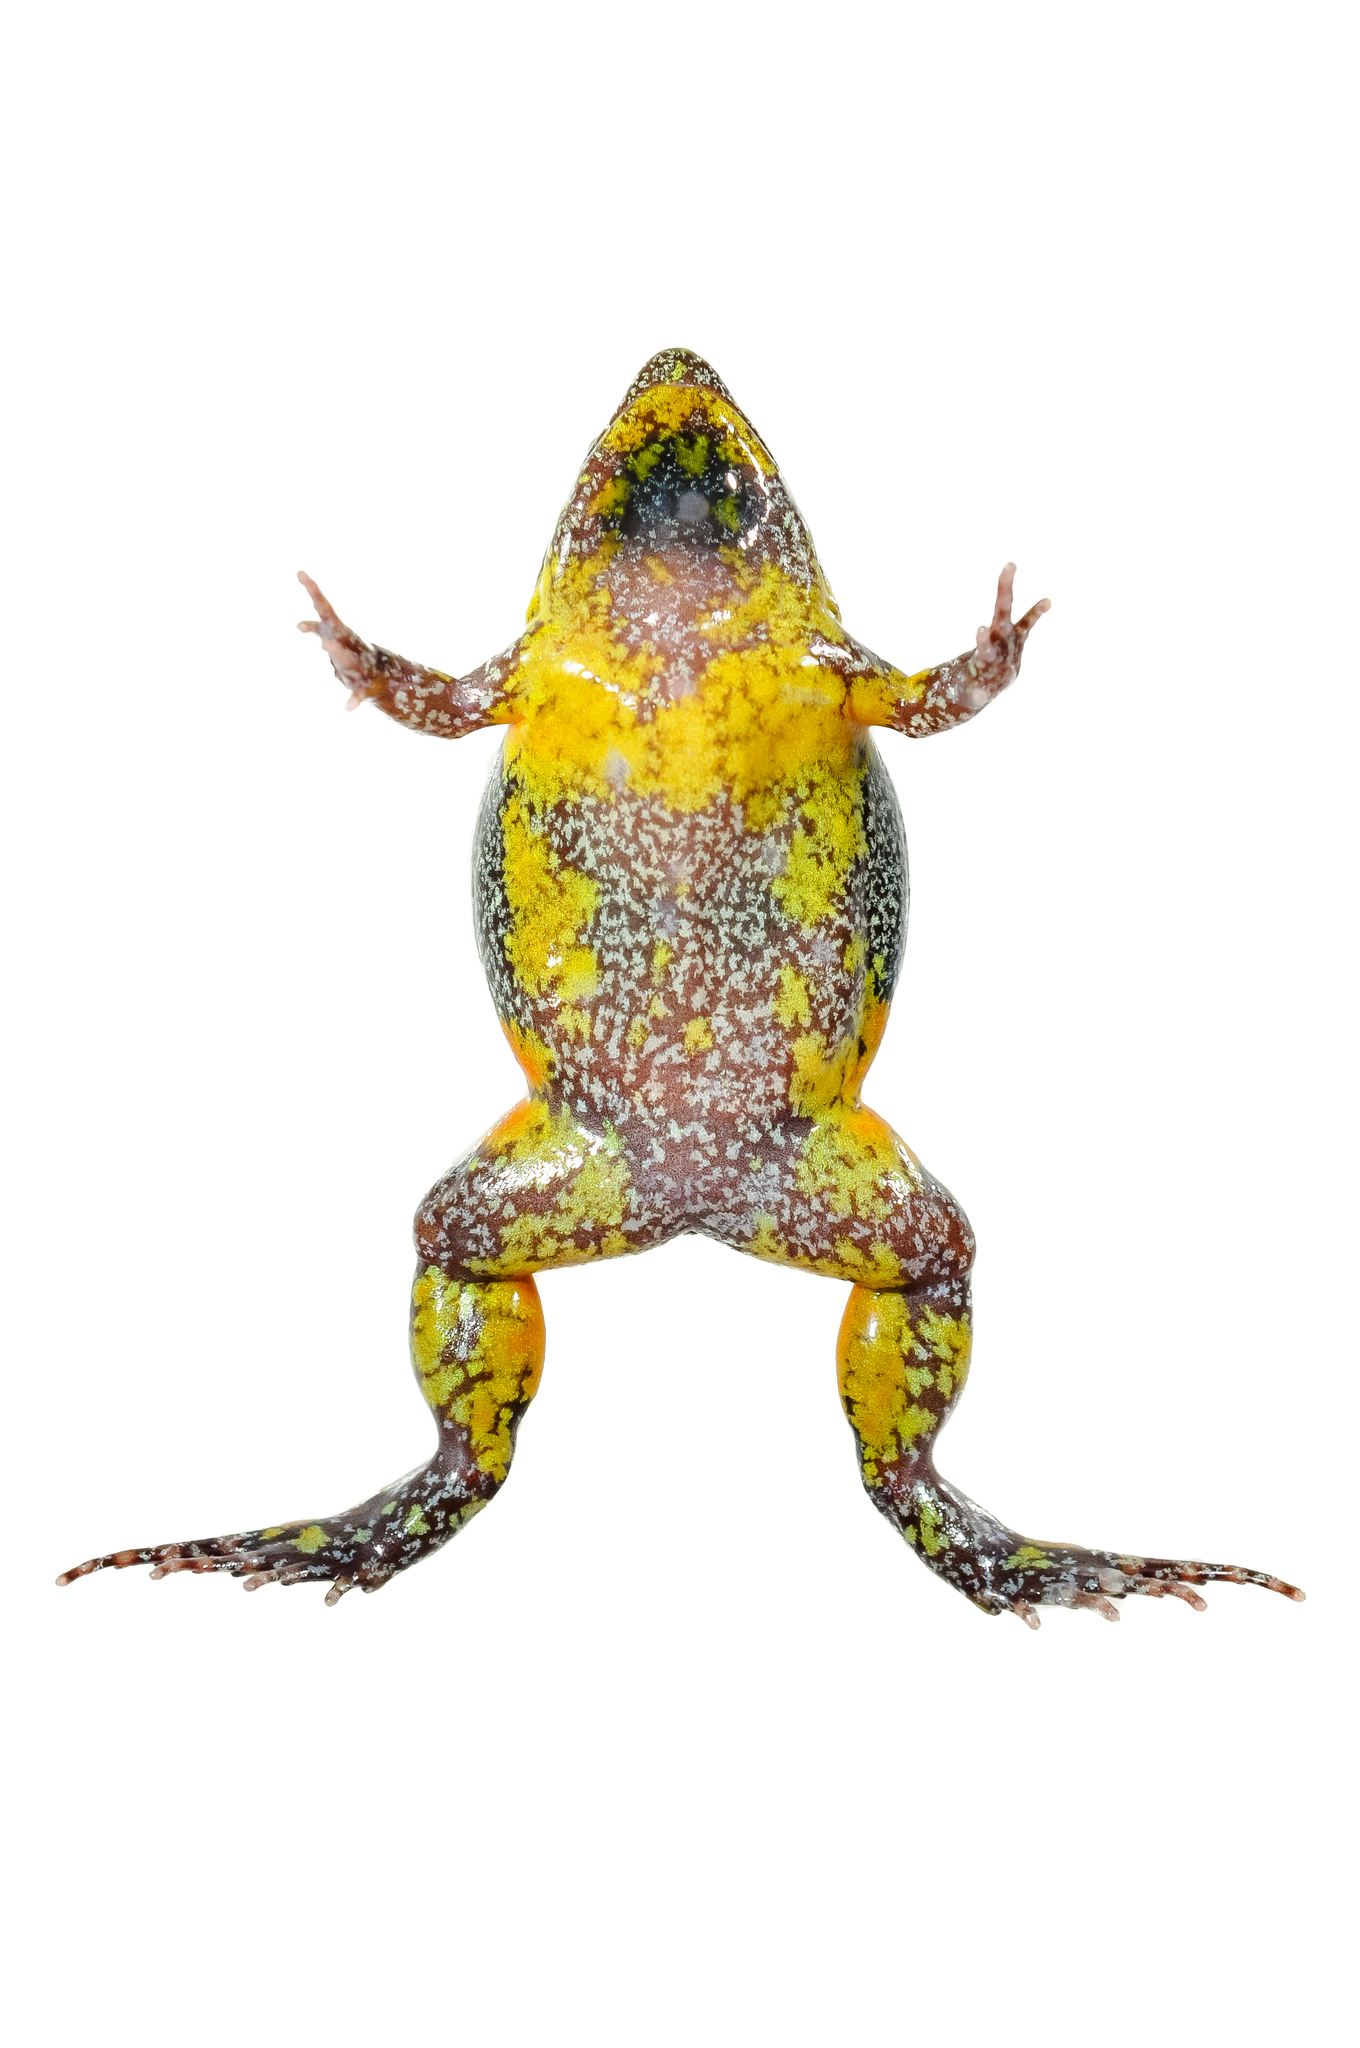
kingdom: Animalia
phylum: Chordata
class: Amphibia
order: Anura
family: Microhylidae
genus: Elachistocleis
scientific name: Elachistocleis corumbaensis
